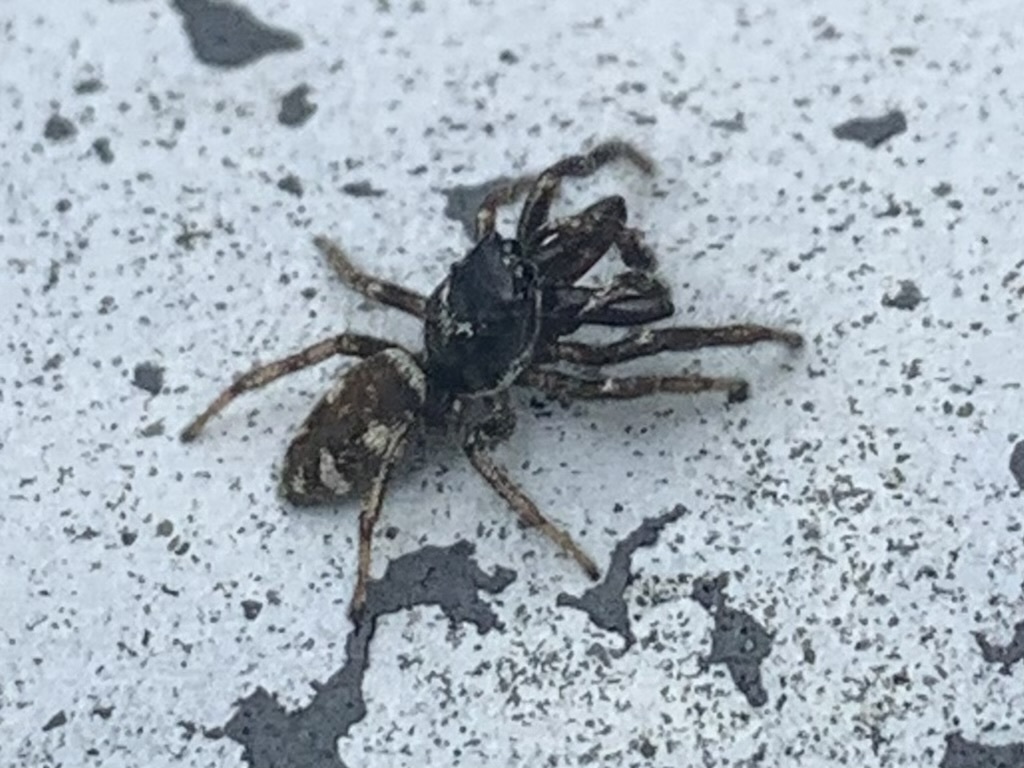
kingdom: Animalia
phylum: Arthropoda
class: Arachnida
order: Araneae
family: Salticidae
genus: Salticus
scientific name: Salticus scenicus
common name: Zebra jumper
